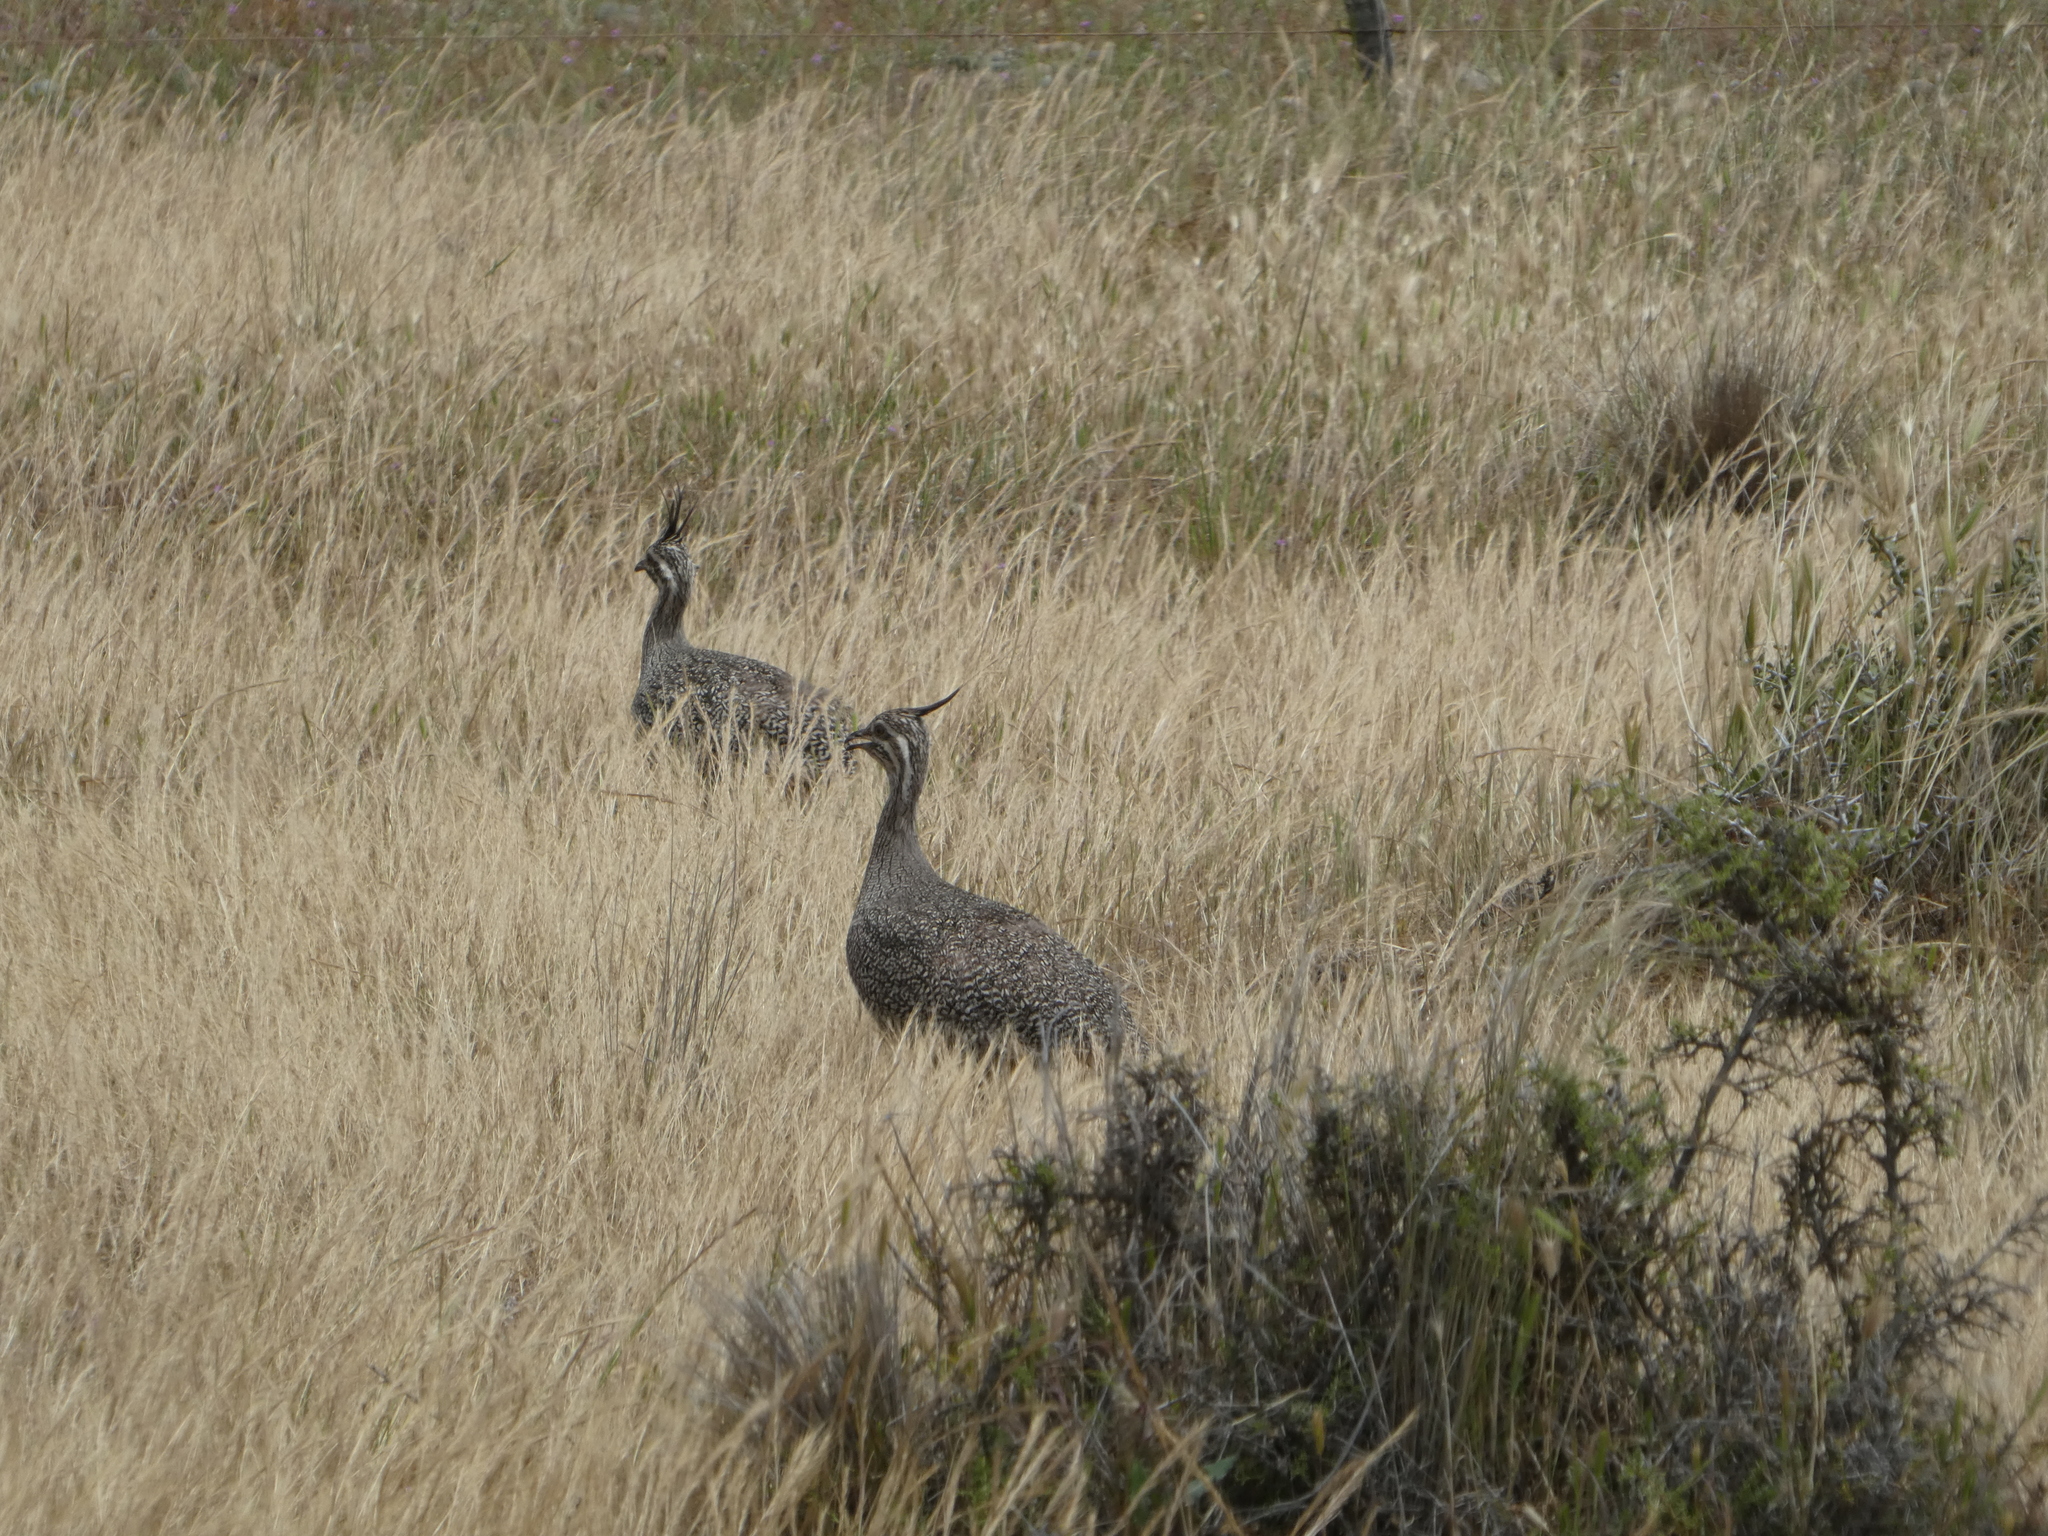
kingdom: Animalia
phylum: Chordata
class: Aves
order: Tinamiformes
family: Tinamidae
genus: Eudromia
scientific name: Eudromia elegans
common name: Elegant crested tinamou
